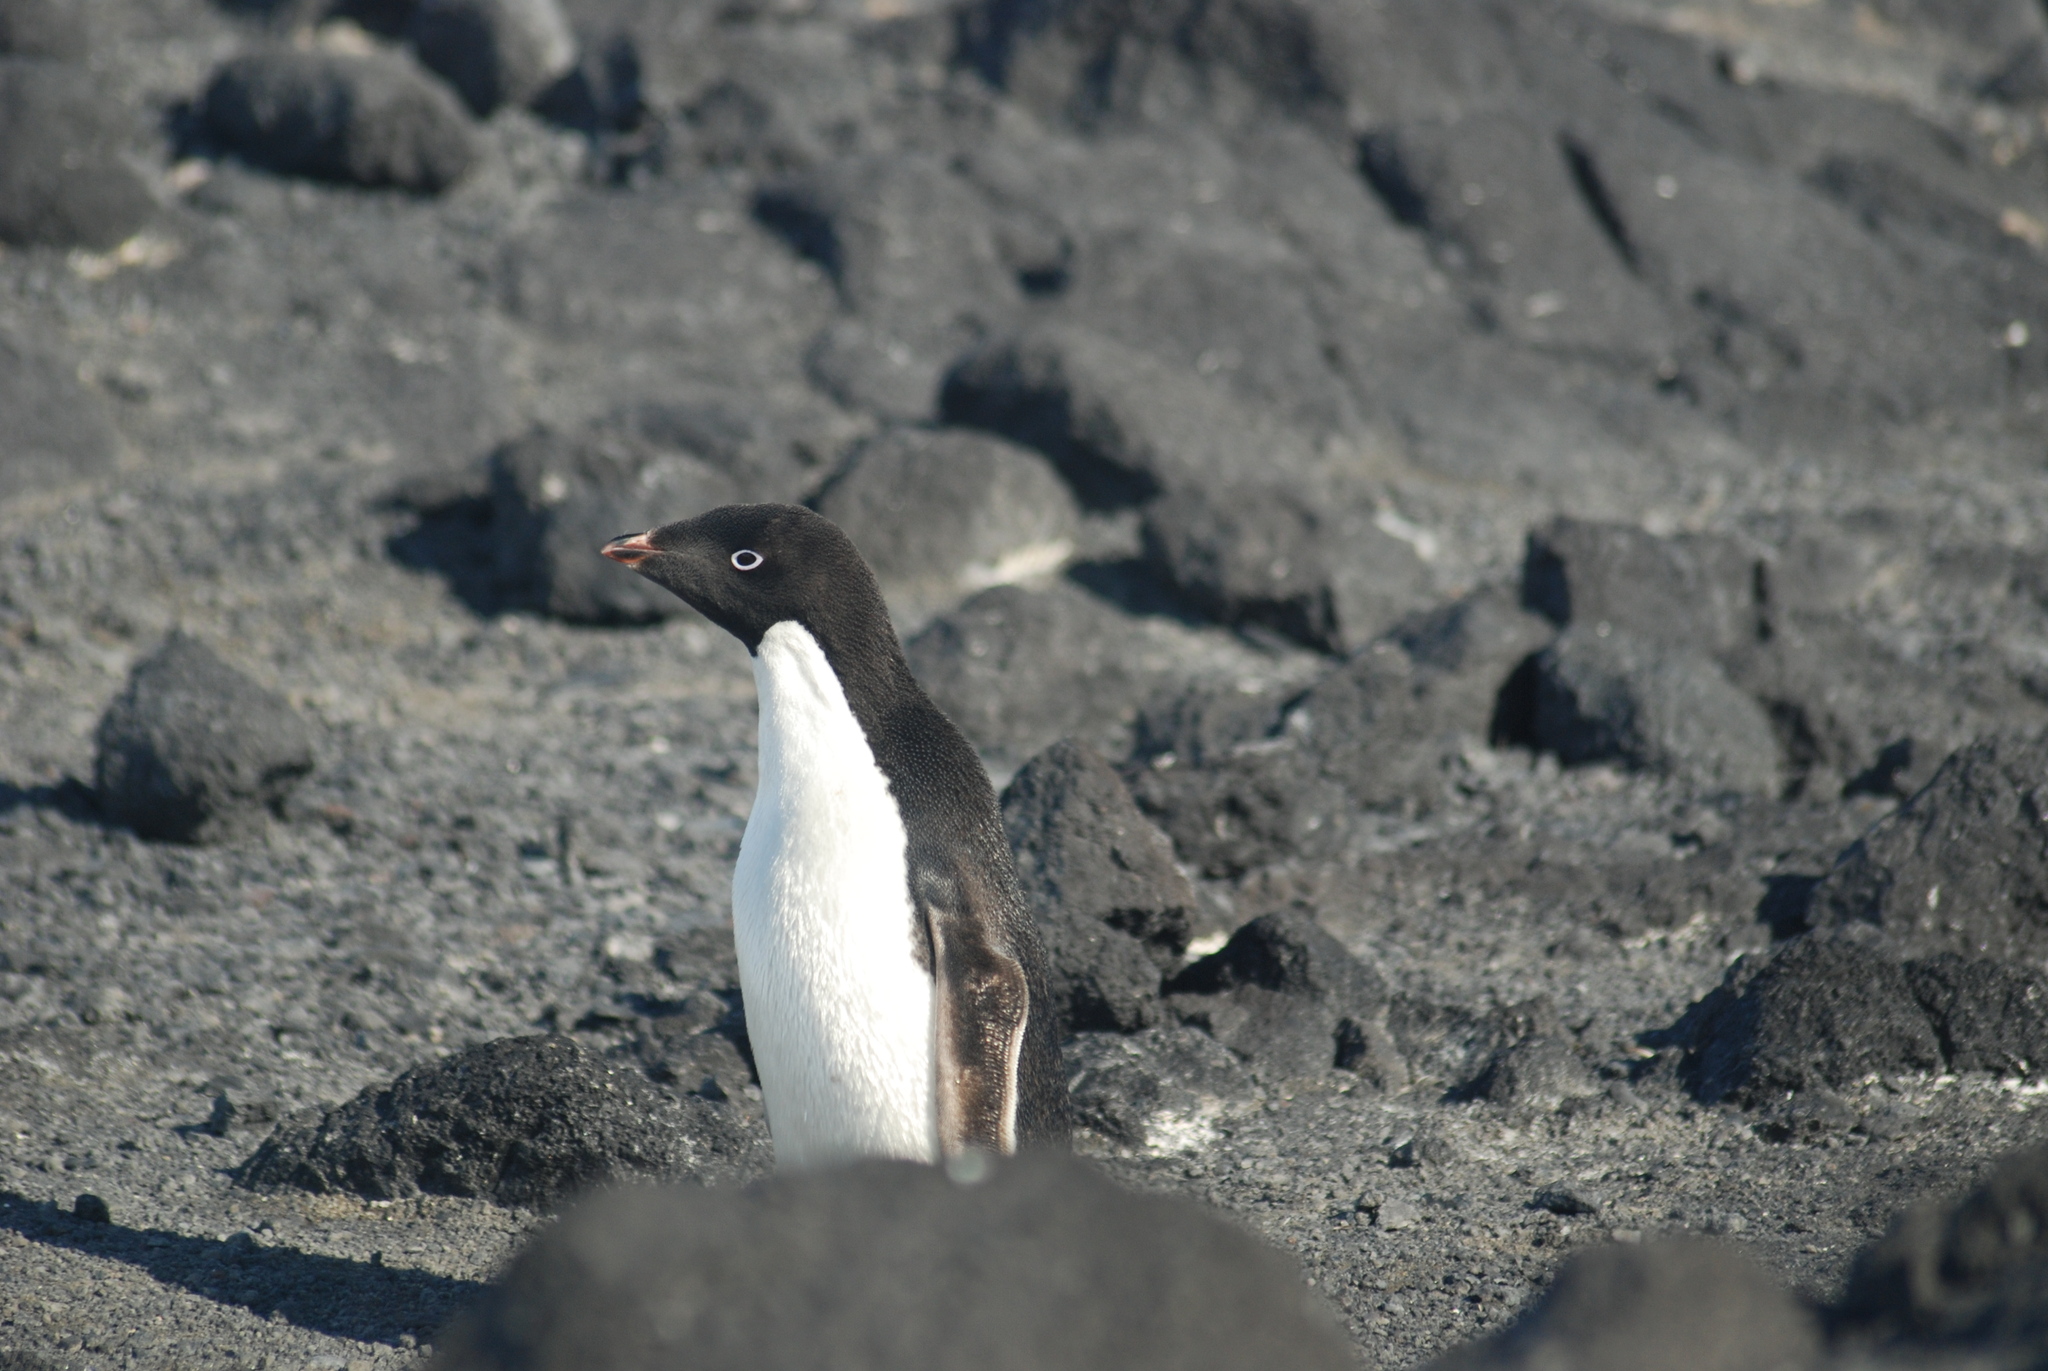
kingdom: Animalia
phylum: Chordata
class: Aves
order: Sphenisciformes
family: Spheniscidae
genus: Pygoscelis
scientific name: Pygoscelis adeliae
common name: Adelie penguin
